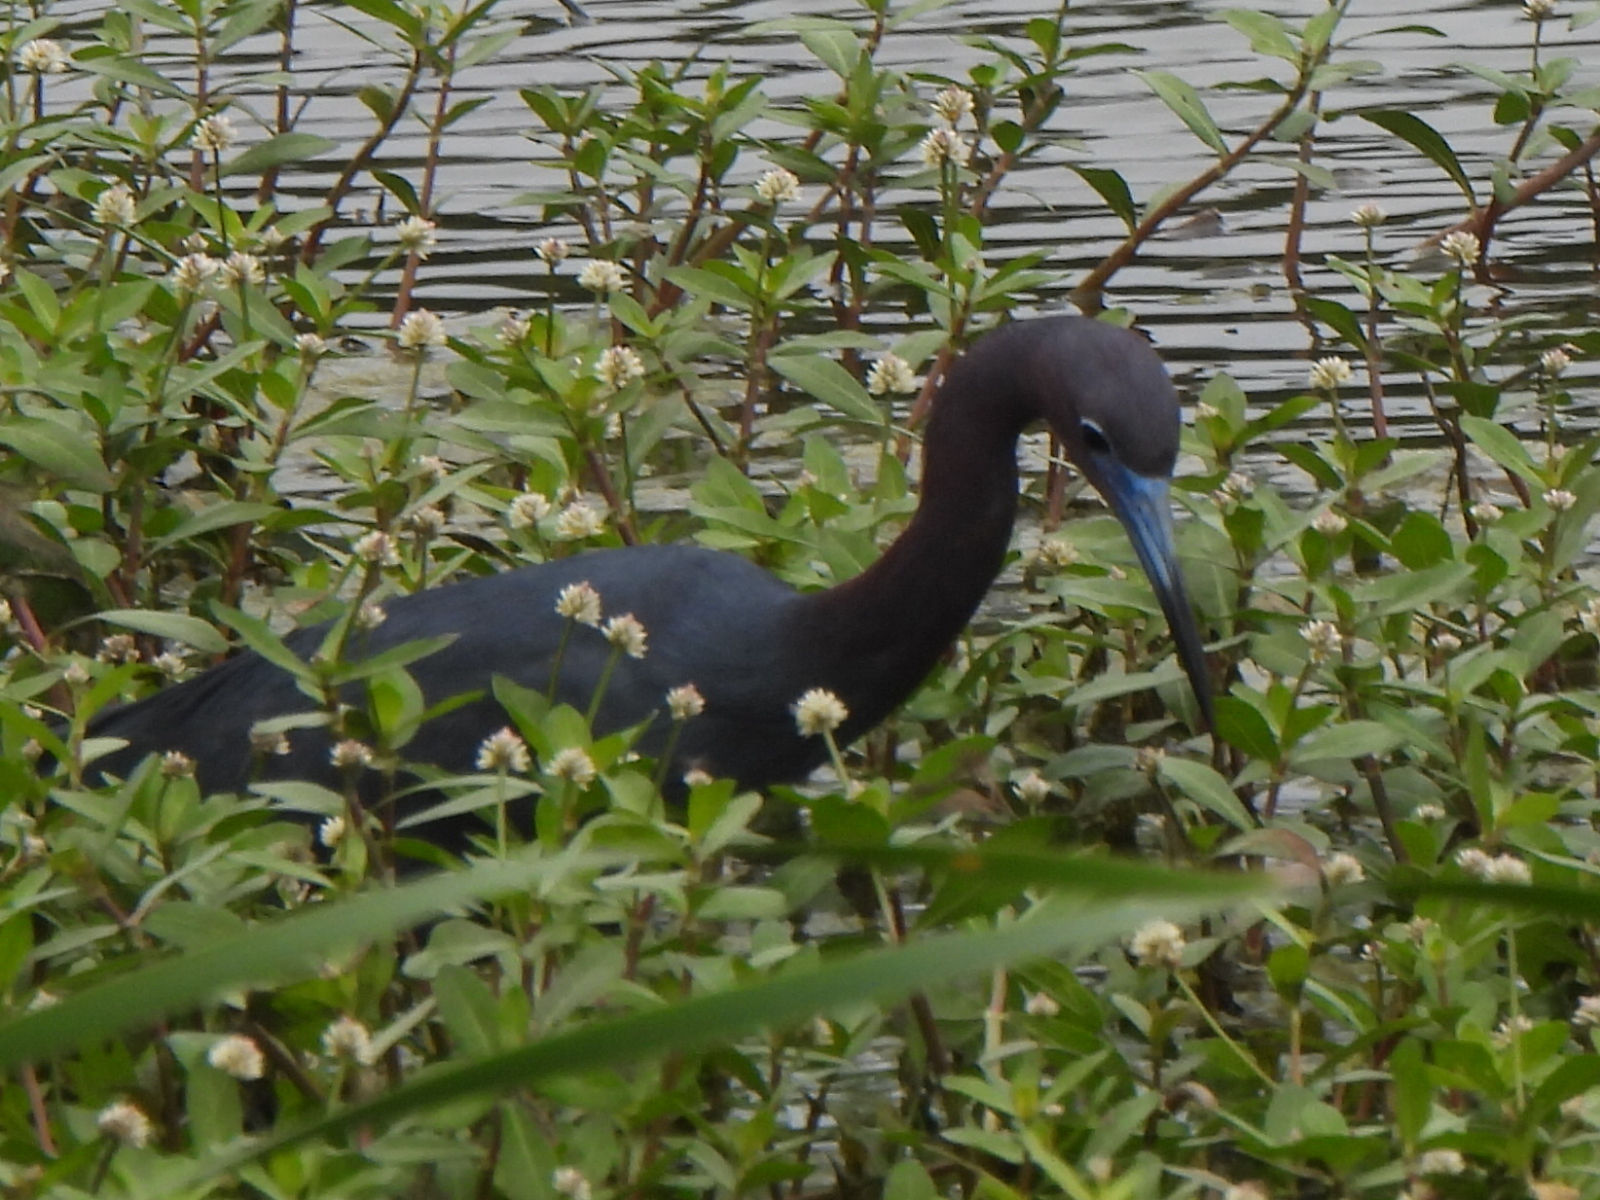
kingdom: Animalia
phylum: Chordata
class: Aves
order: Pelecaniformes
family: Ardeidae
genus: Egretta
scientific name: Egretta caerulea
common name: Little blue heron
